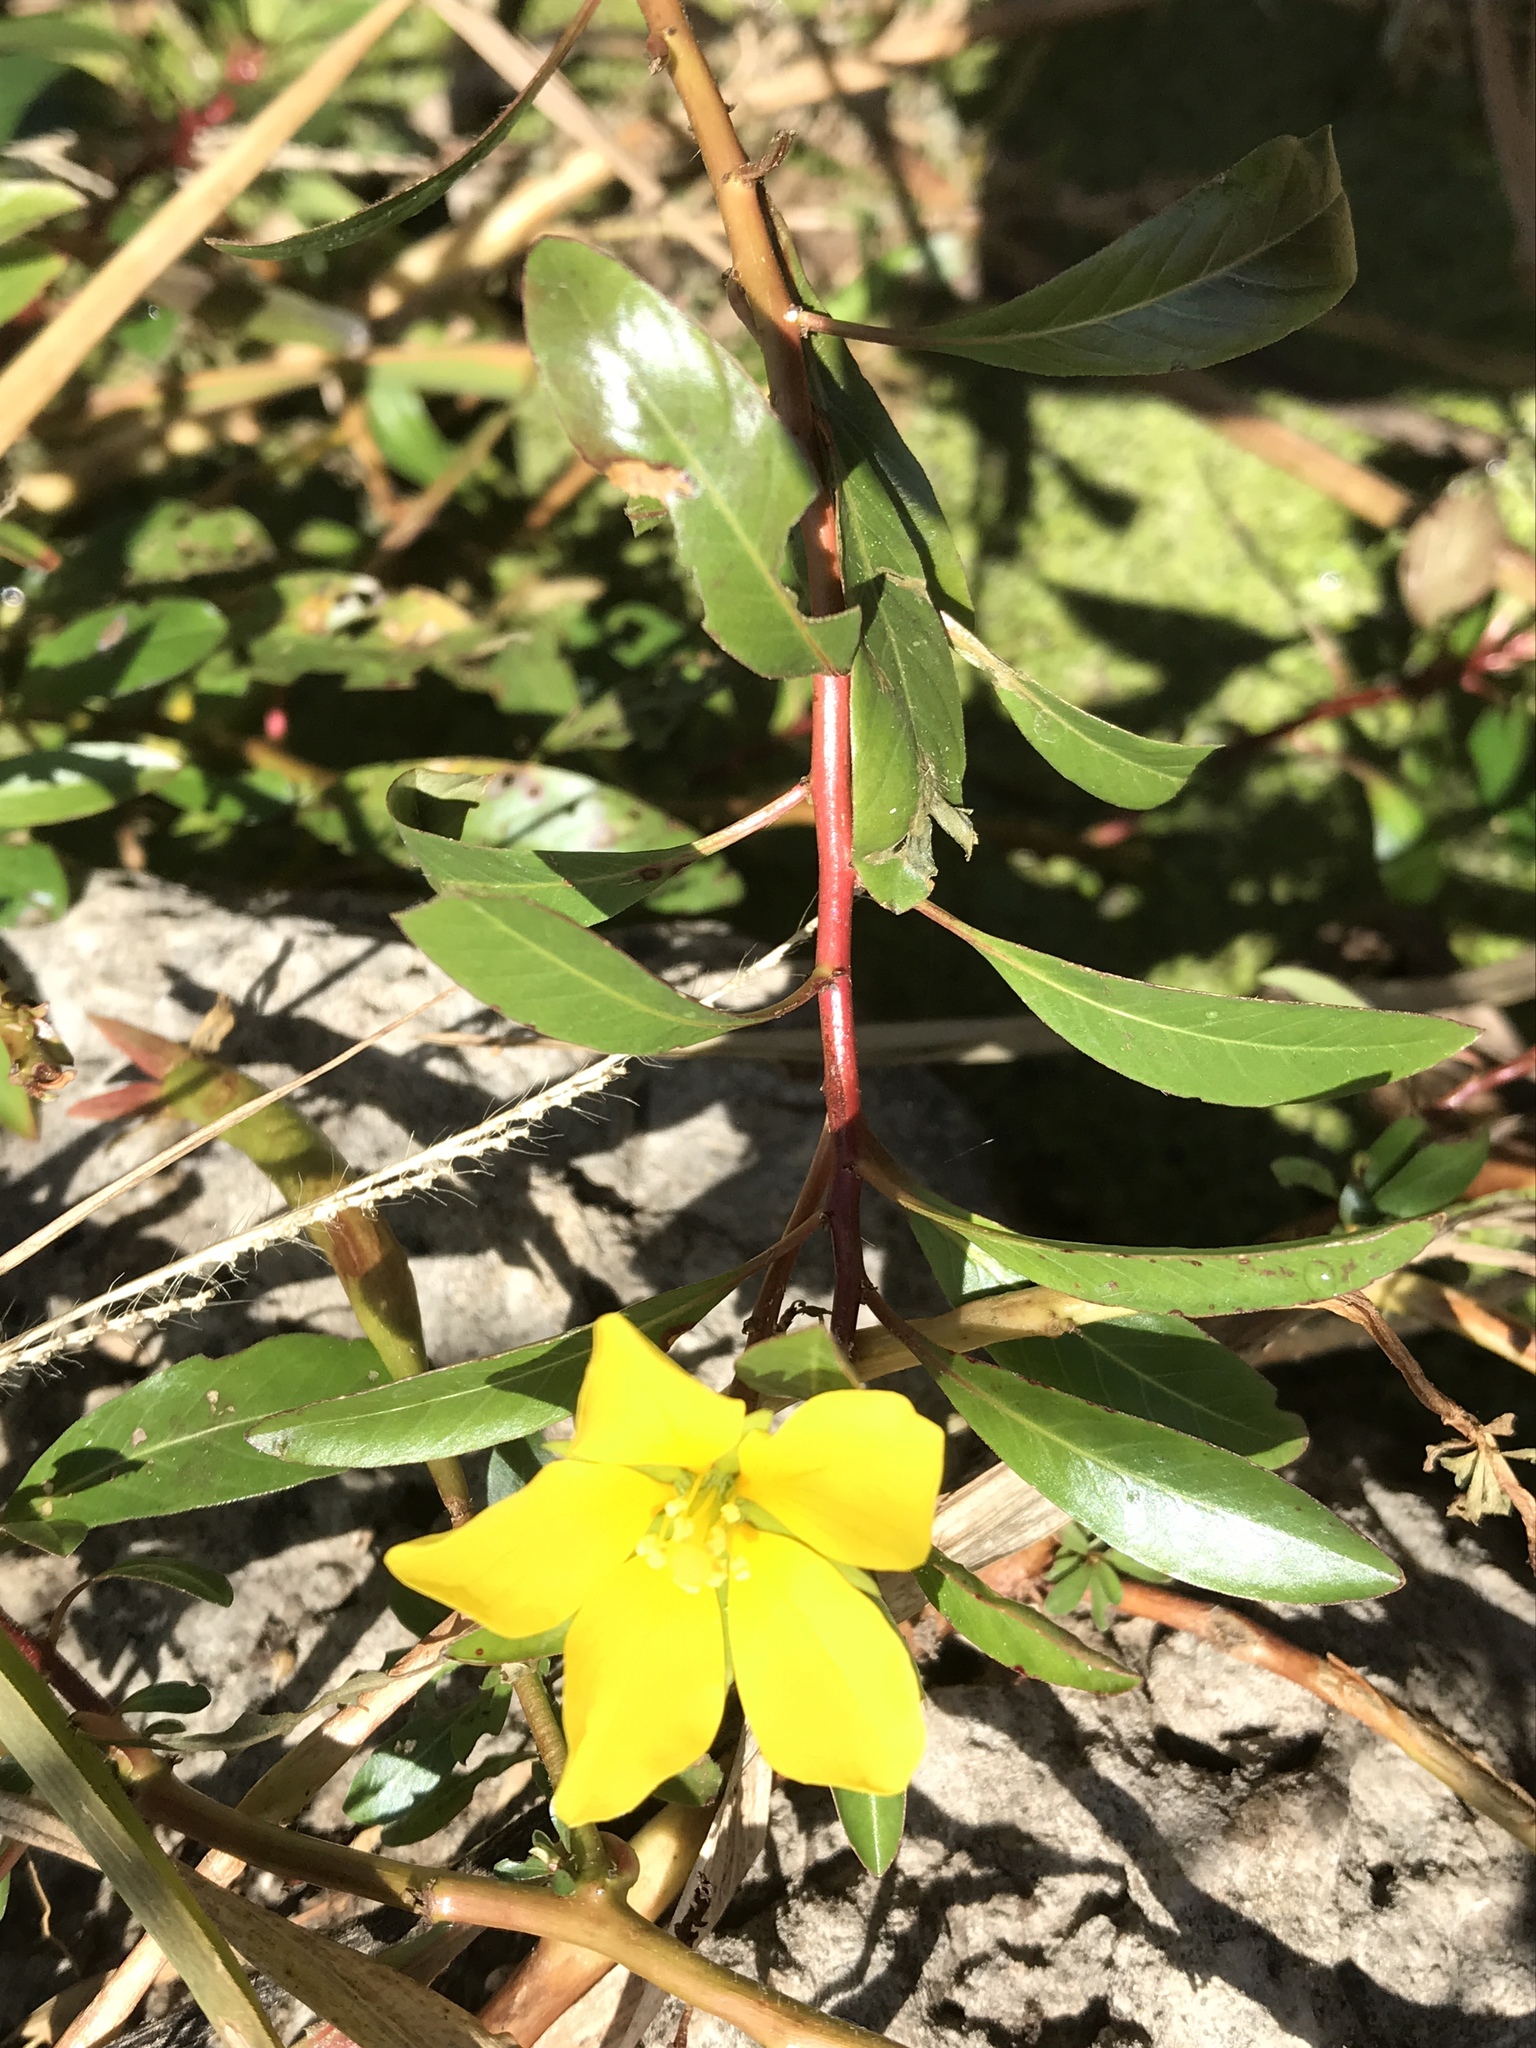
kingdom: Plantae
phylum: Tracheophyta
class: Magnoliopsida
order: Myrtales
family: Onagraceae
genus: Ludwigia
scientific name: Ludwigia peploides
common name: Floating primrose-willow
